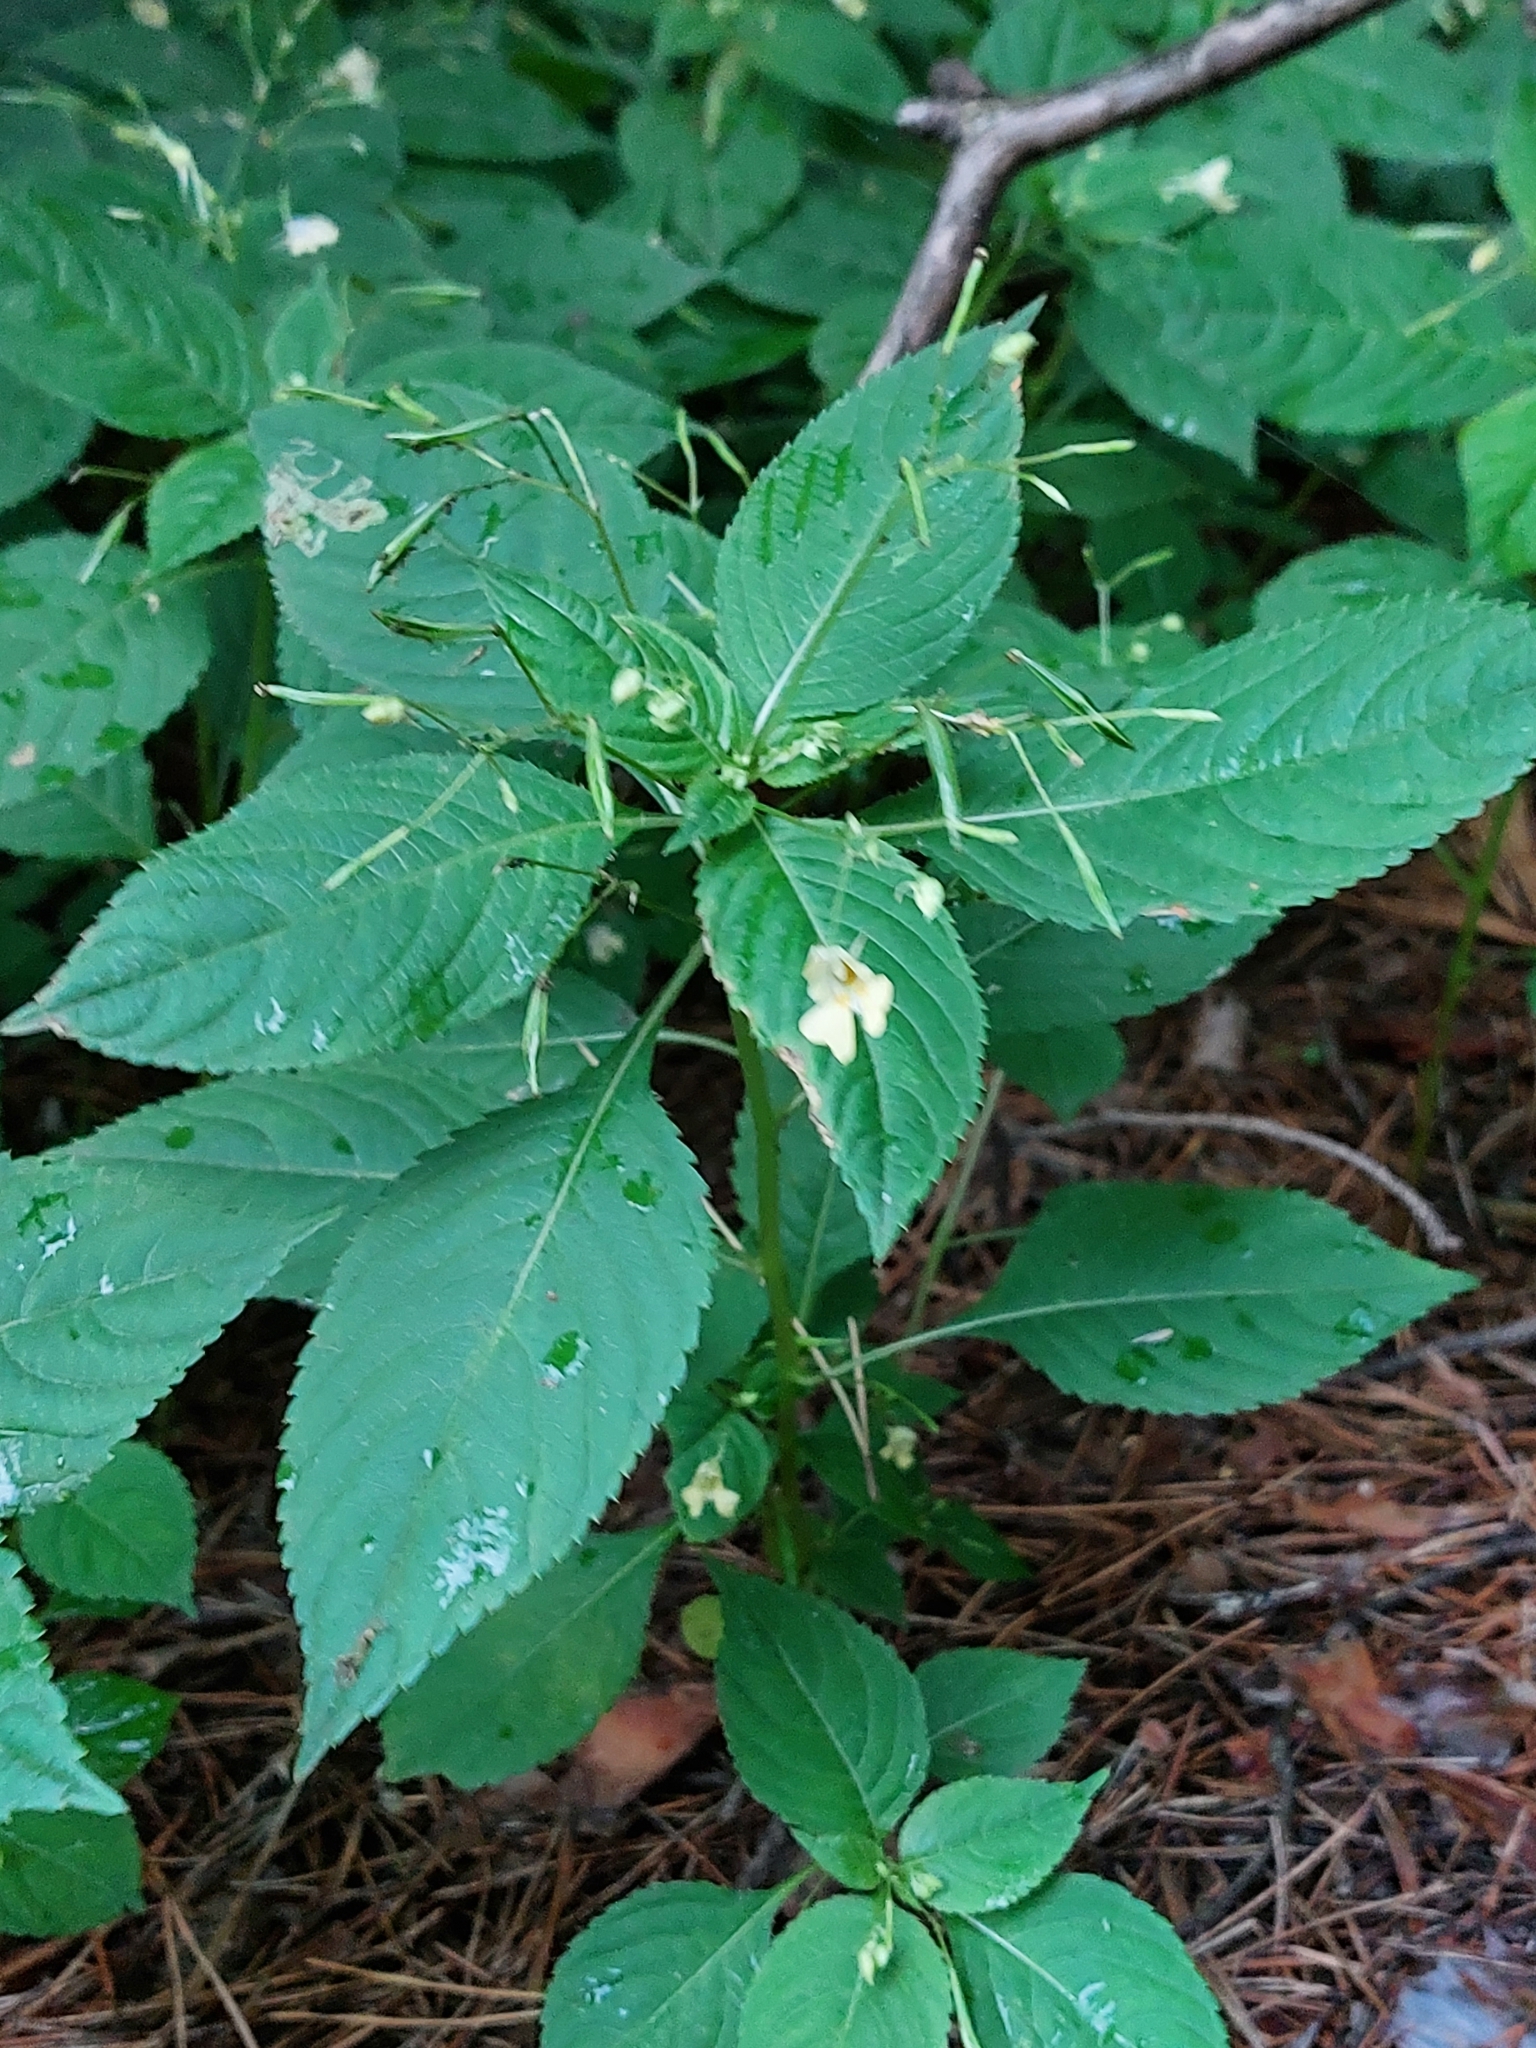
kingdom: Plantae
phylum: Tracheophyta
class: Magnoliopsida
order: Ericales
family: Balsaminaceae
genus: Impatiens
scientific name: Impatiens parviflora
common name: Small balsam
